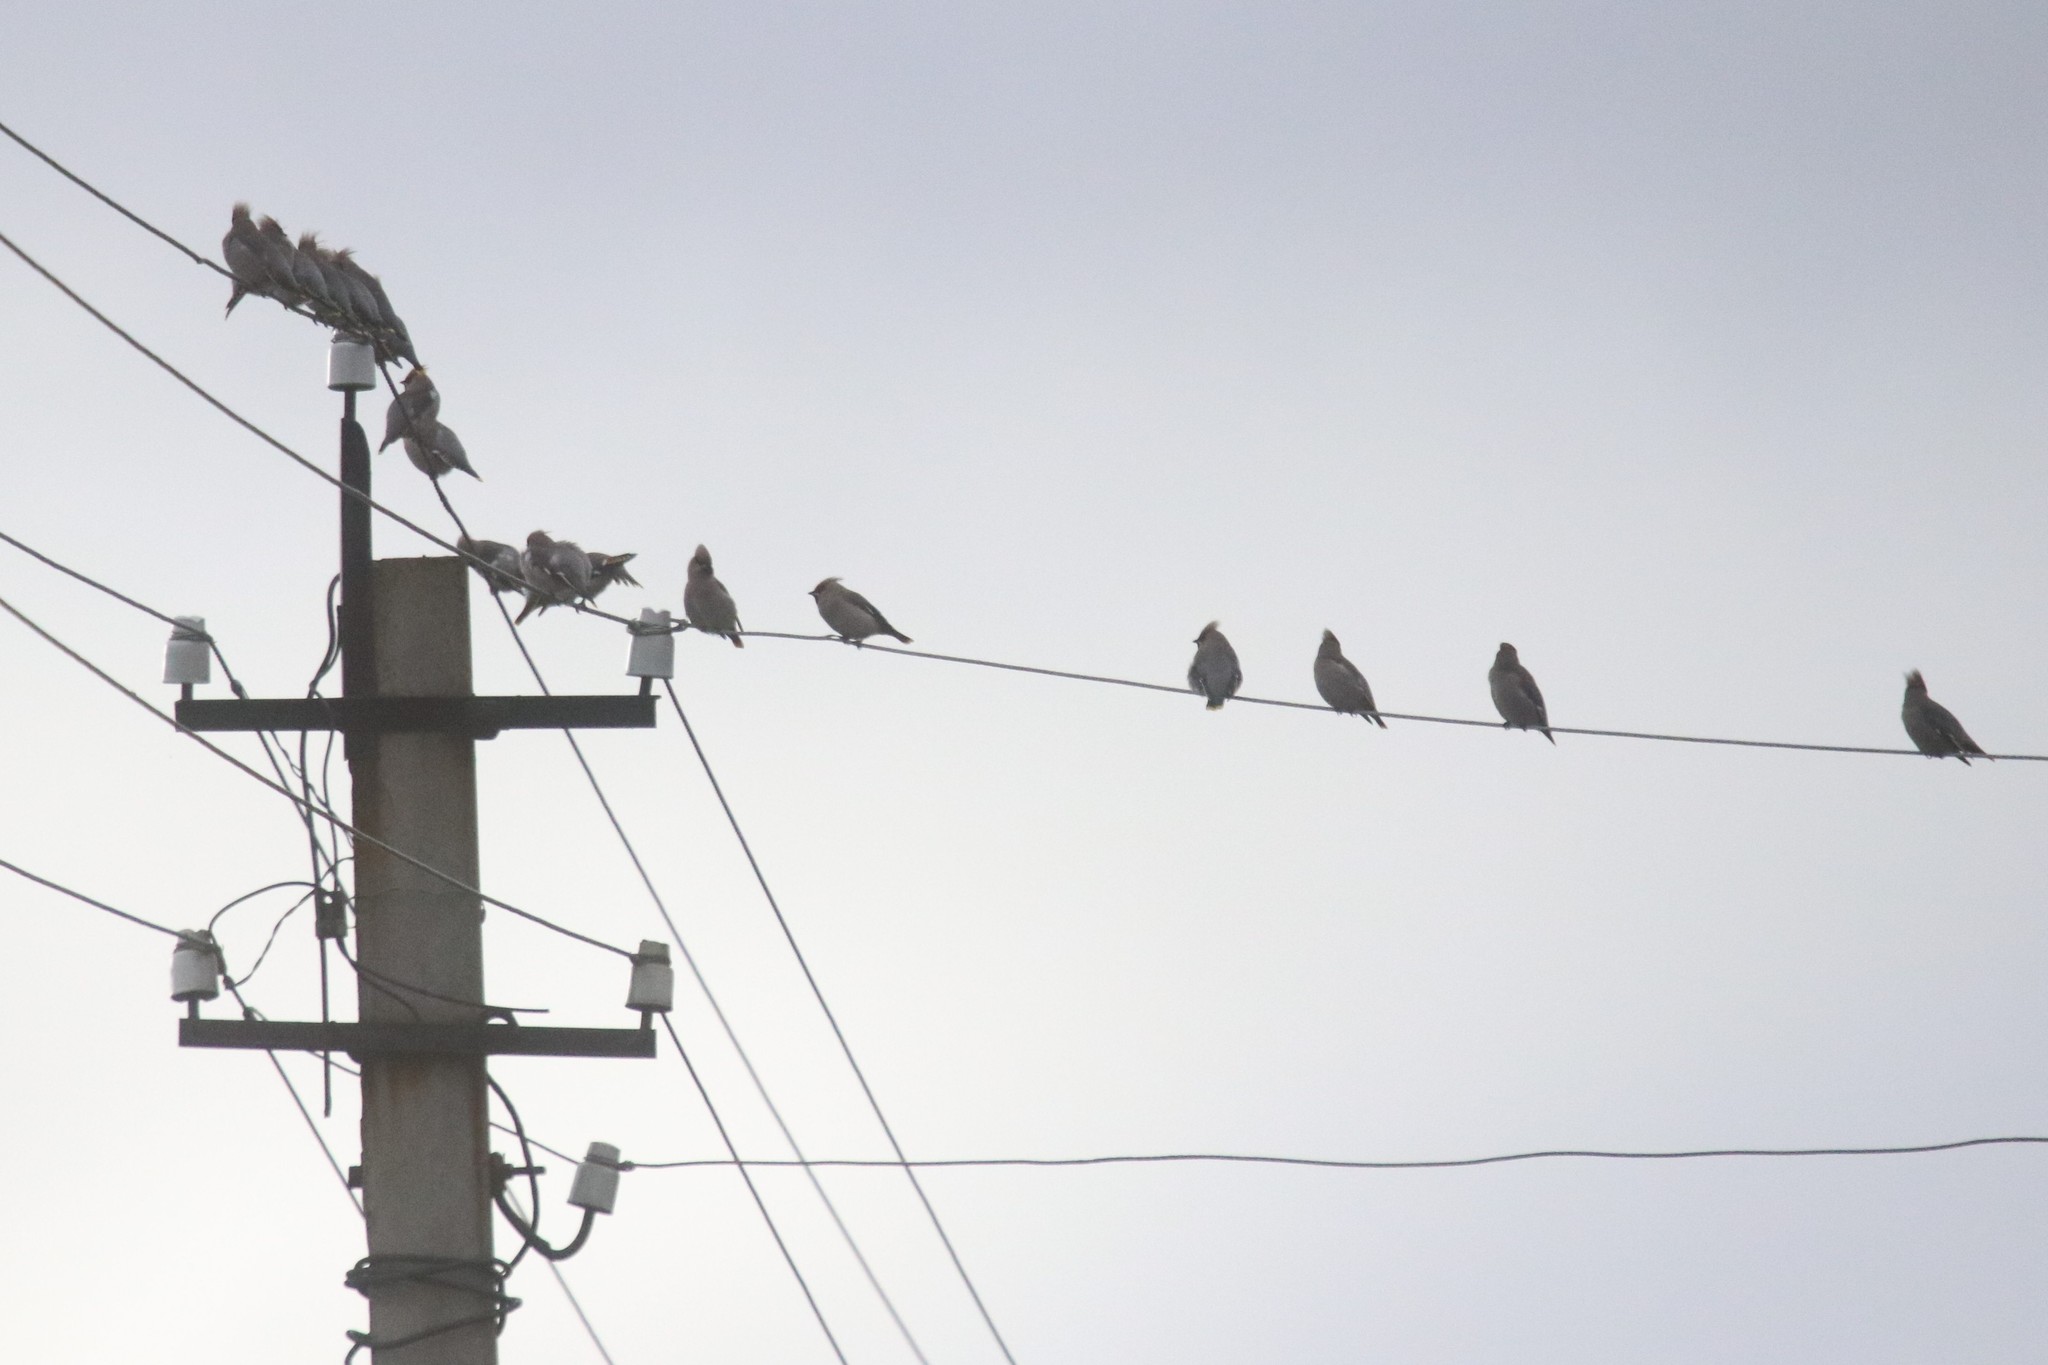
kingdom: Animalia
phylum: Chordata
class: Aves
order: Passeriformes
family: Bombycillidae
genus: Bombycilla
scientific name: Bombycilla garrulus
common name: Bohemian waxwing
